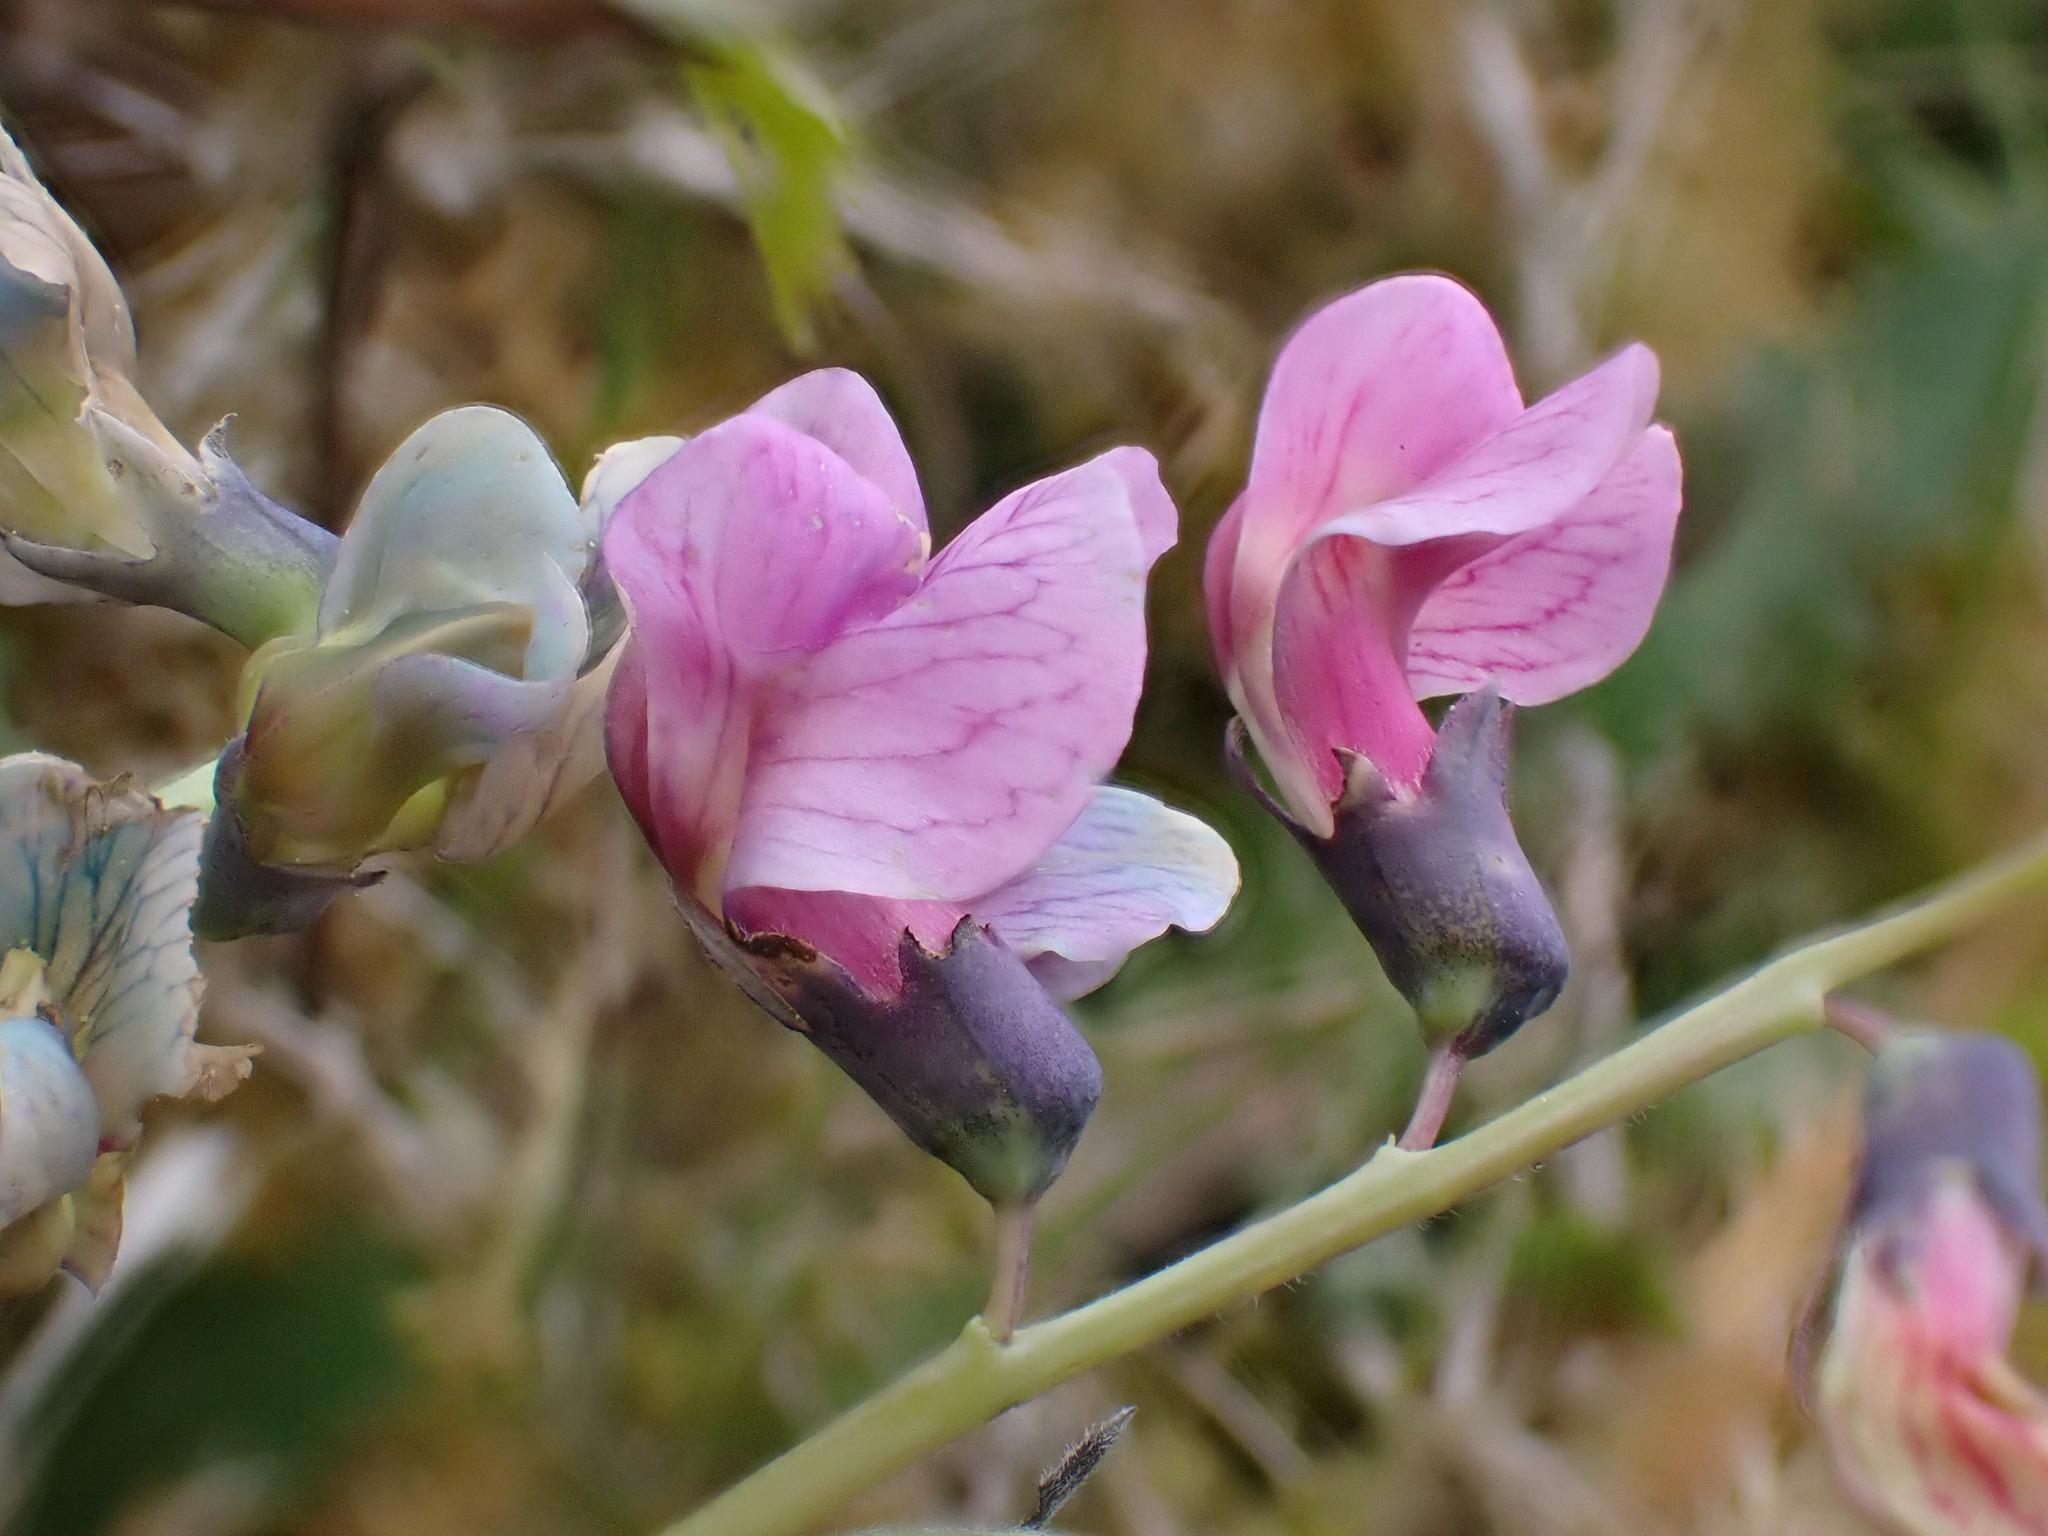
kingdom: Plantae
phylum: Tracheophyta
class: Magnoliopsida
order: Fabales
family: Fabaceae
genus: Lathyrus
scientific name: Lathyrus linifolius
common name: Bitter-vetch
